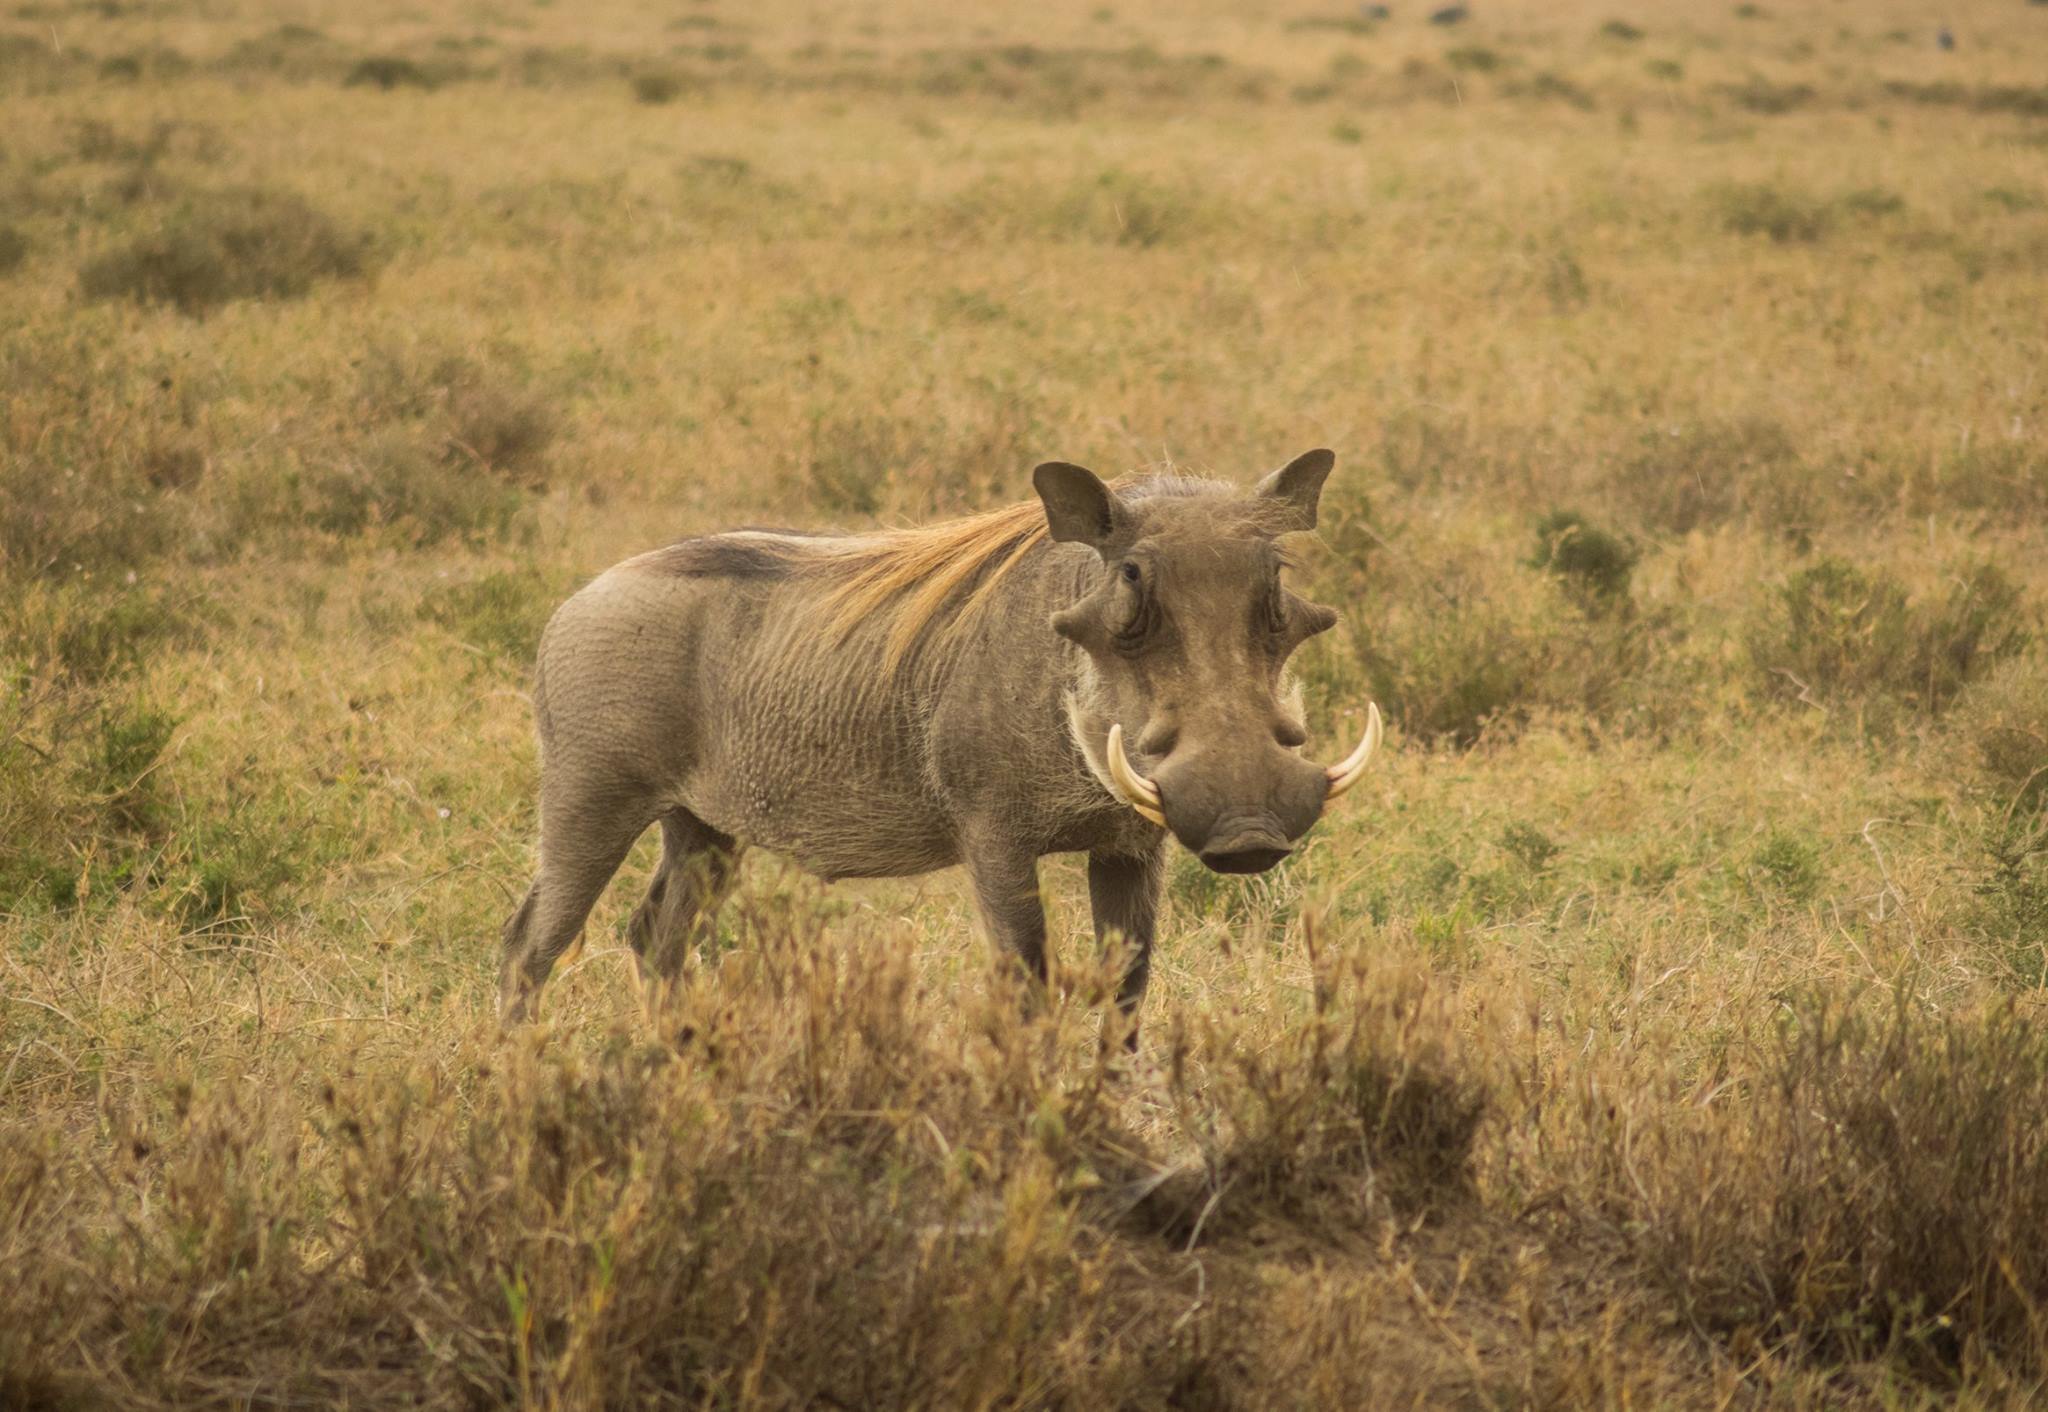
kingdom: Animalia
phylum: Chordata
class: Mammalia
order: Artiodactyla
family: Suidae
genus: Phacochoerus
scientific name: Phacochoerus africanus
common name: Common warthog
